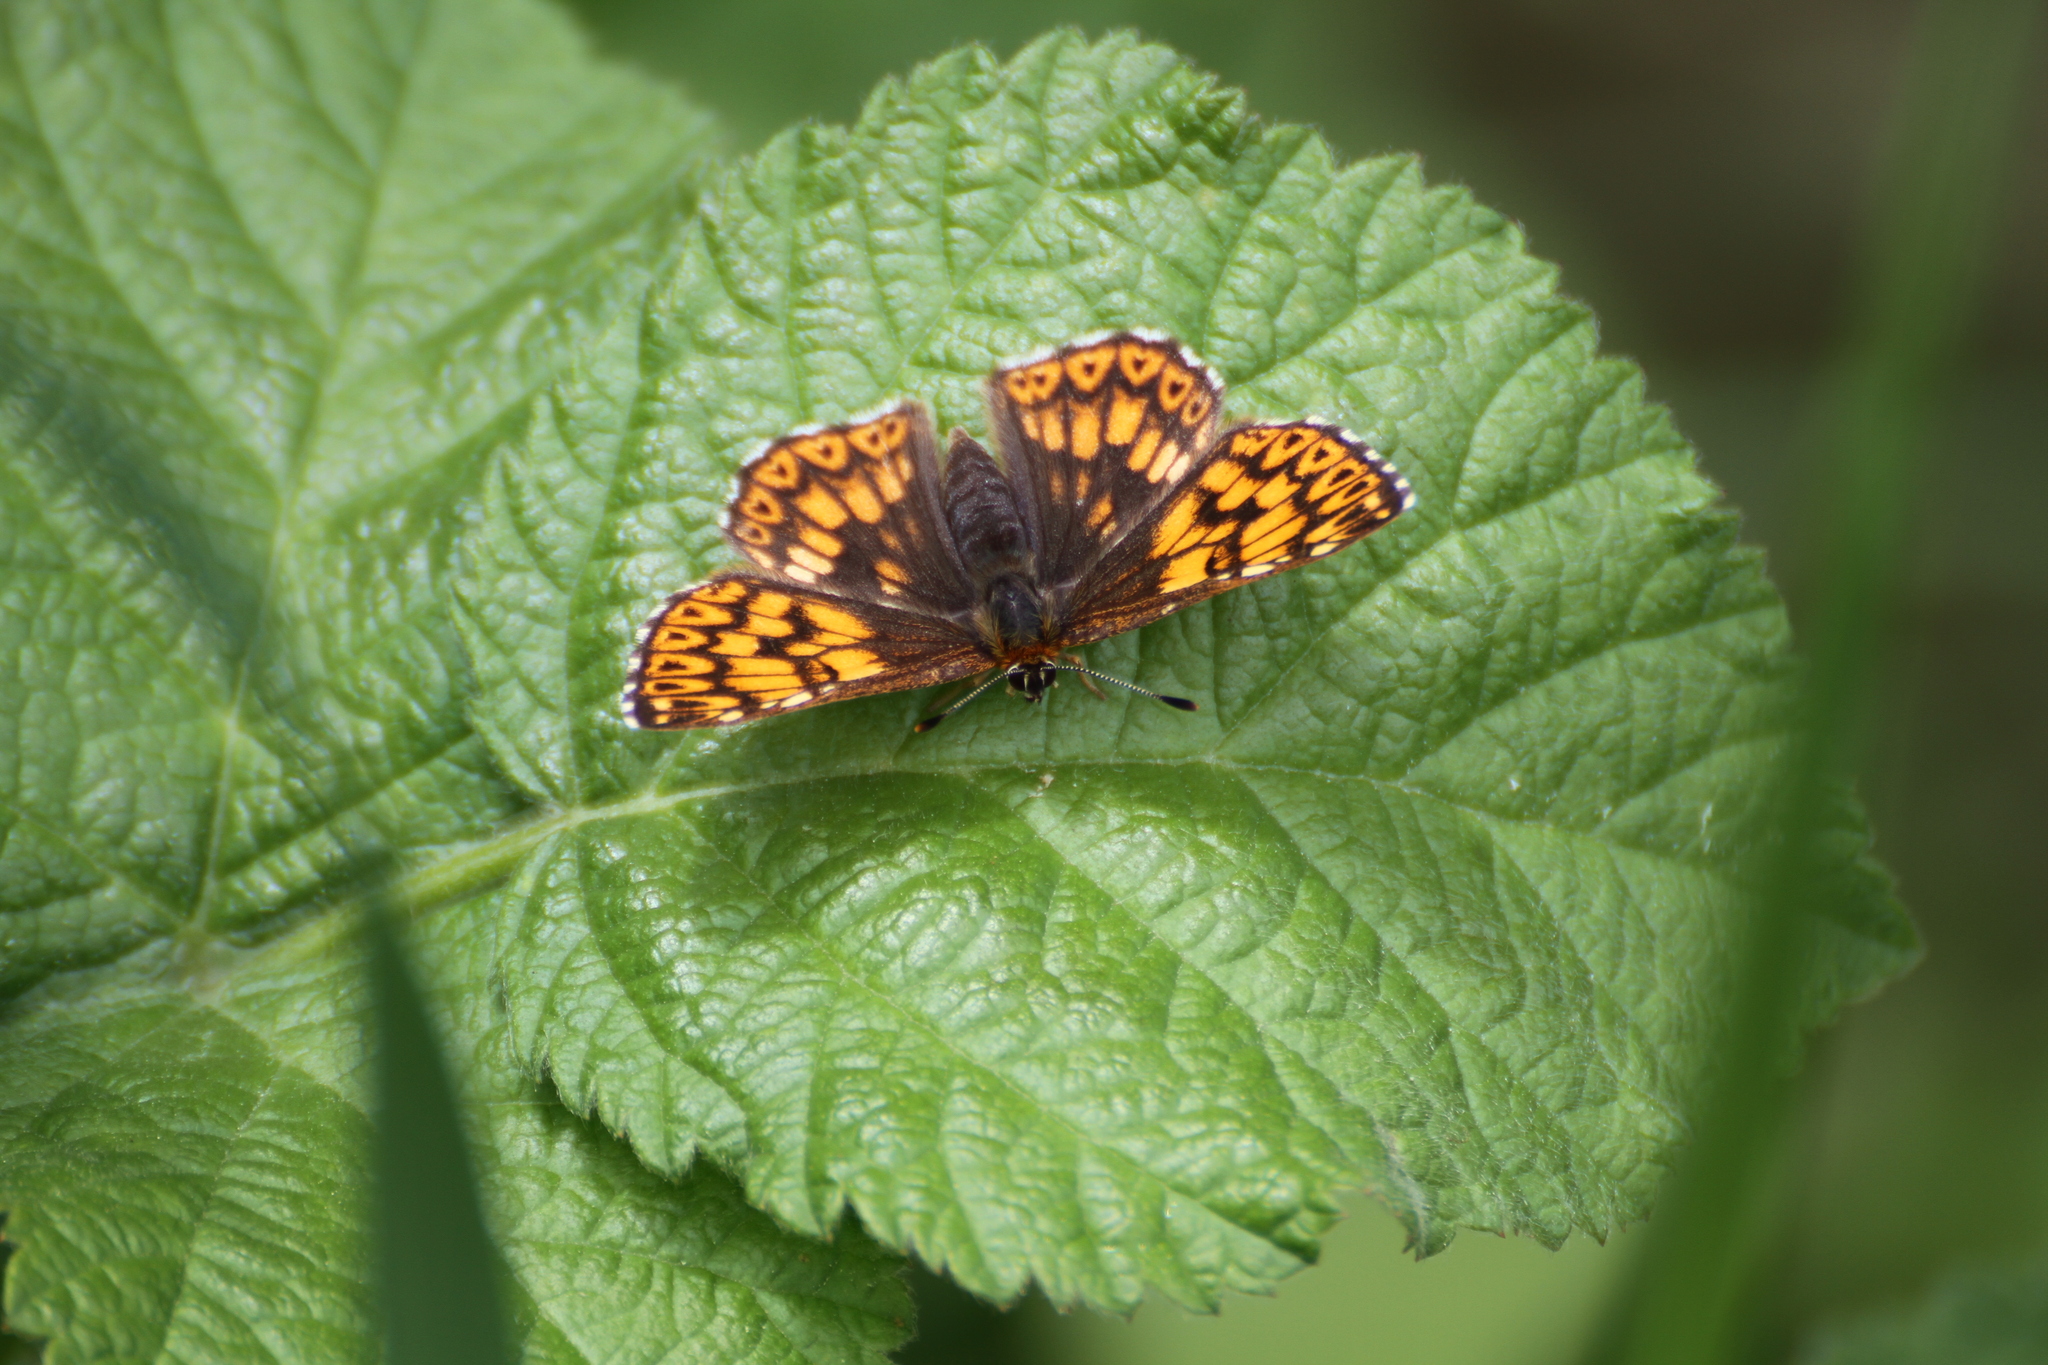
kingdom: Animalia
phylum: Arthropoda
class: Insecta
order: Lepidoptera
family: Riodinidae
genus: Hamearis
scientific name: Hamearis lucina
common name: Duke of burgundy fritillary
